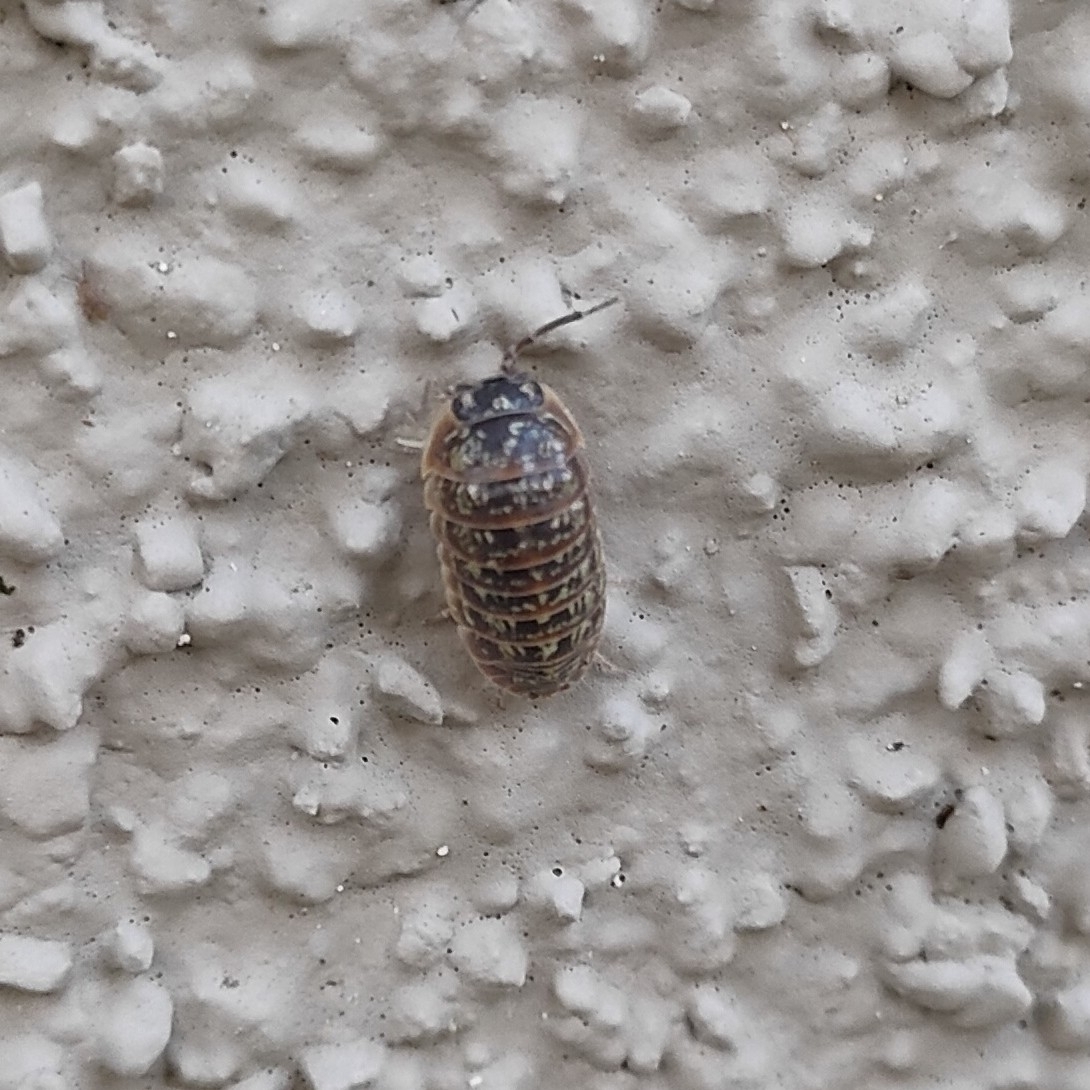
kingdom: Animalia
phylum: Arthropoda
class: Malacostraca
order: Isopoda
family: Armadillidiidae
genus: Armadillidium
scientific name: Armadillidium versicolor
